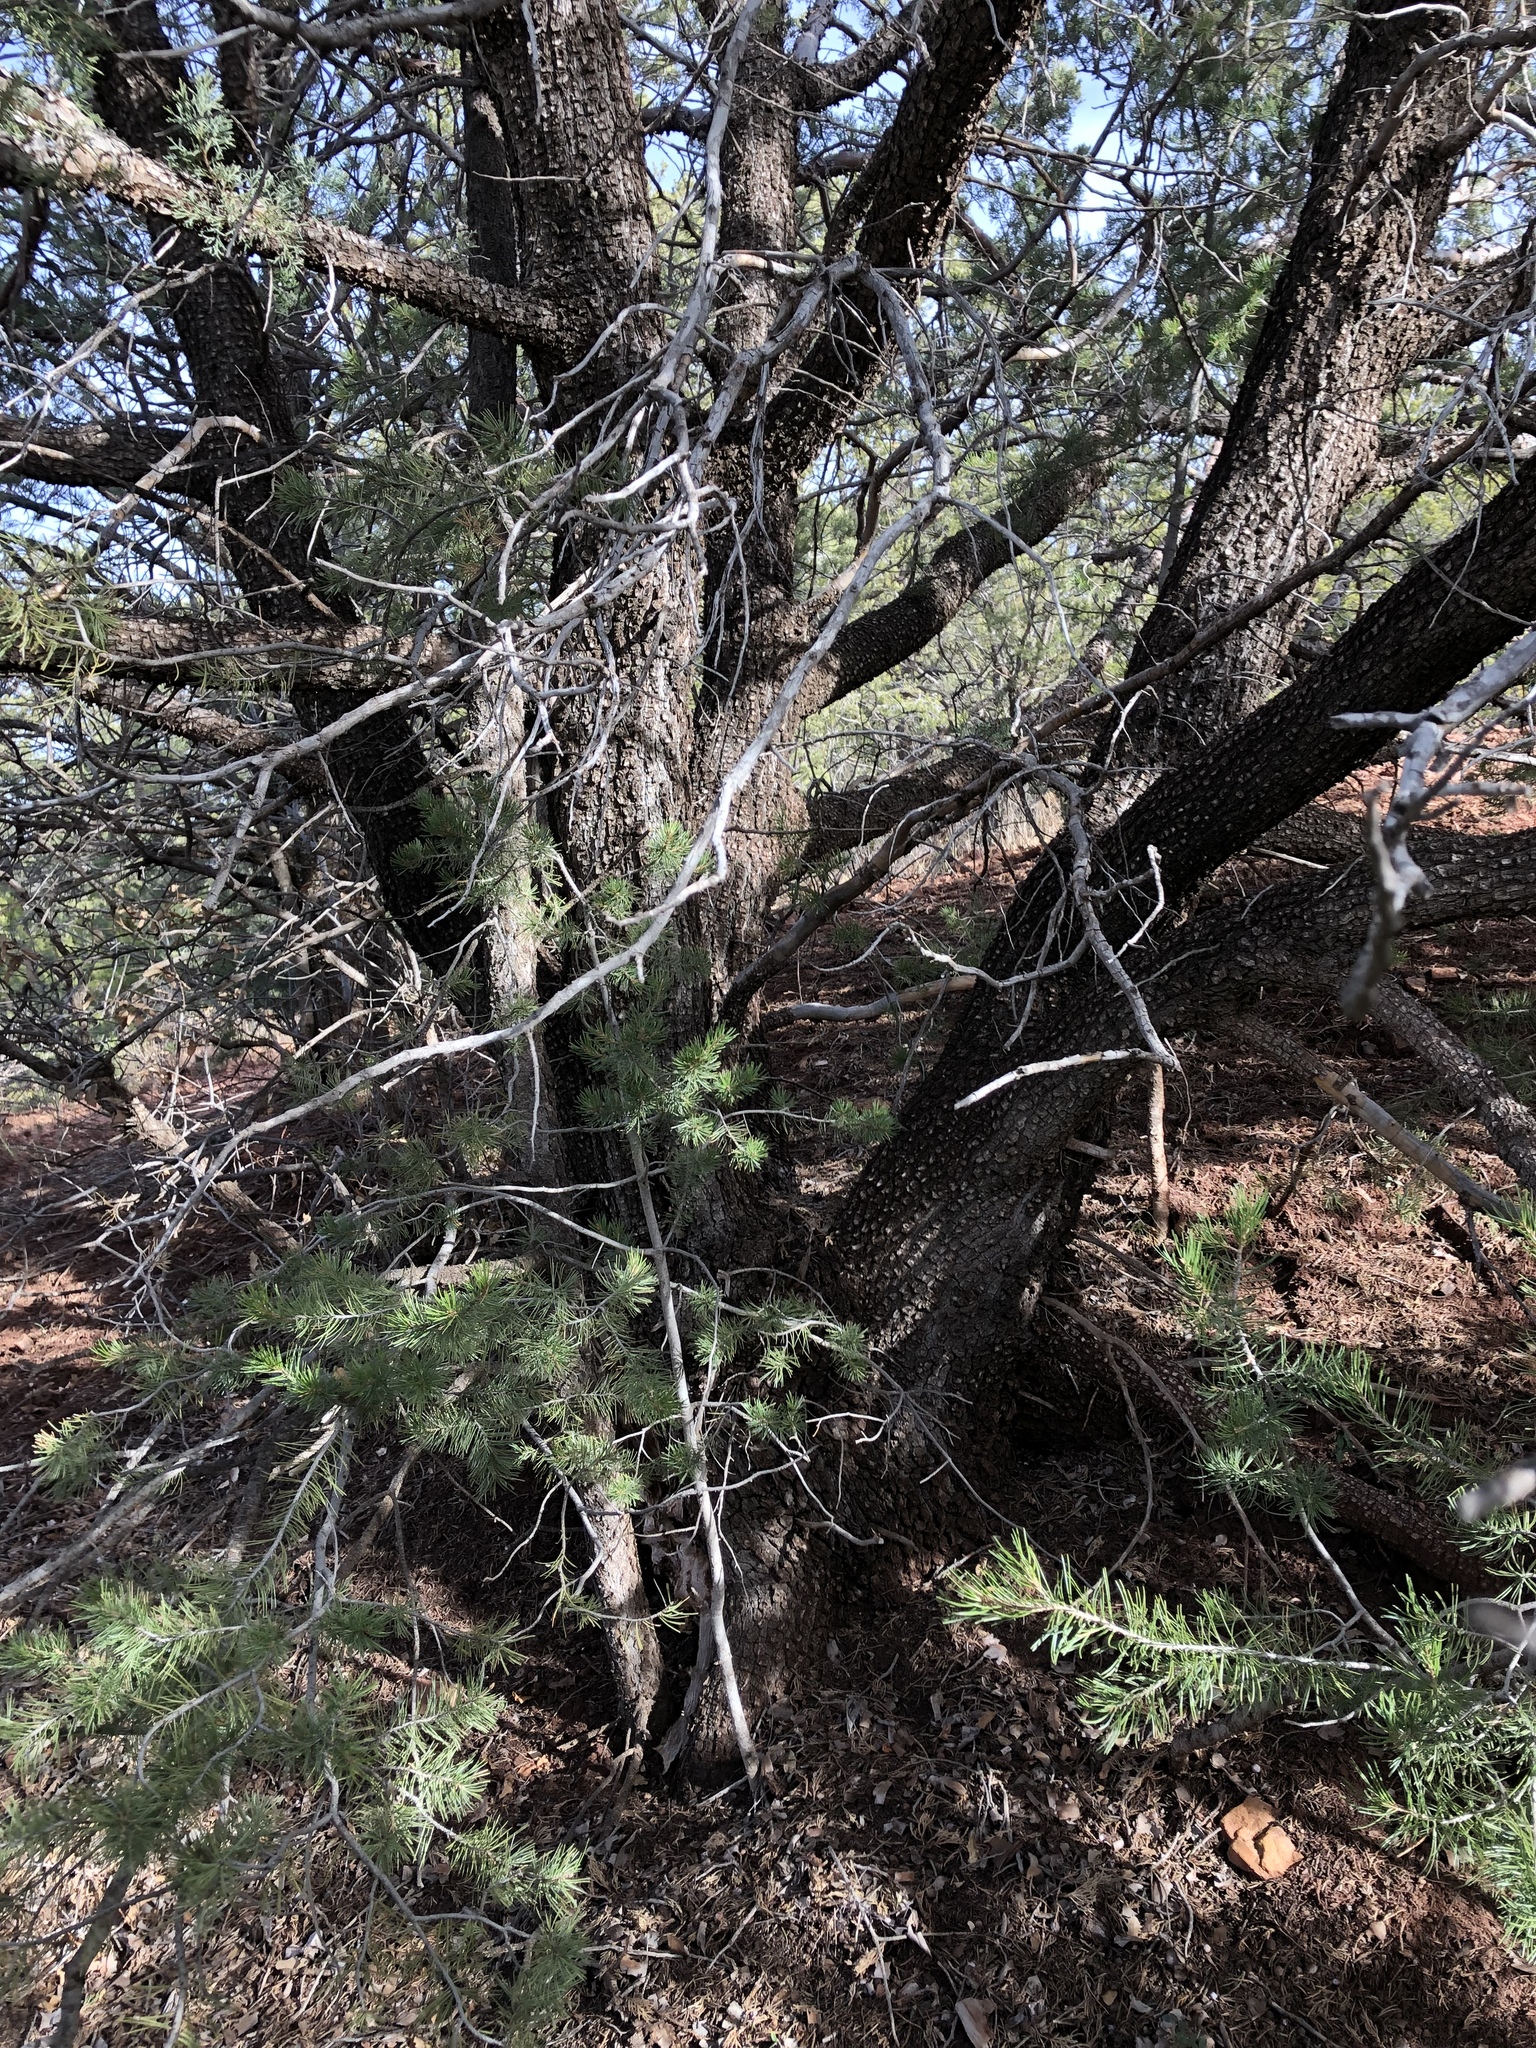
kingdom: Plantae
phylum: Tracheophyta
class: Pinopsida
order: Pinales
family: Cupressaceae
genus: Juniperus
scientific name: Juniperus deppeana
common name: Alligator juniper
